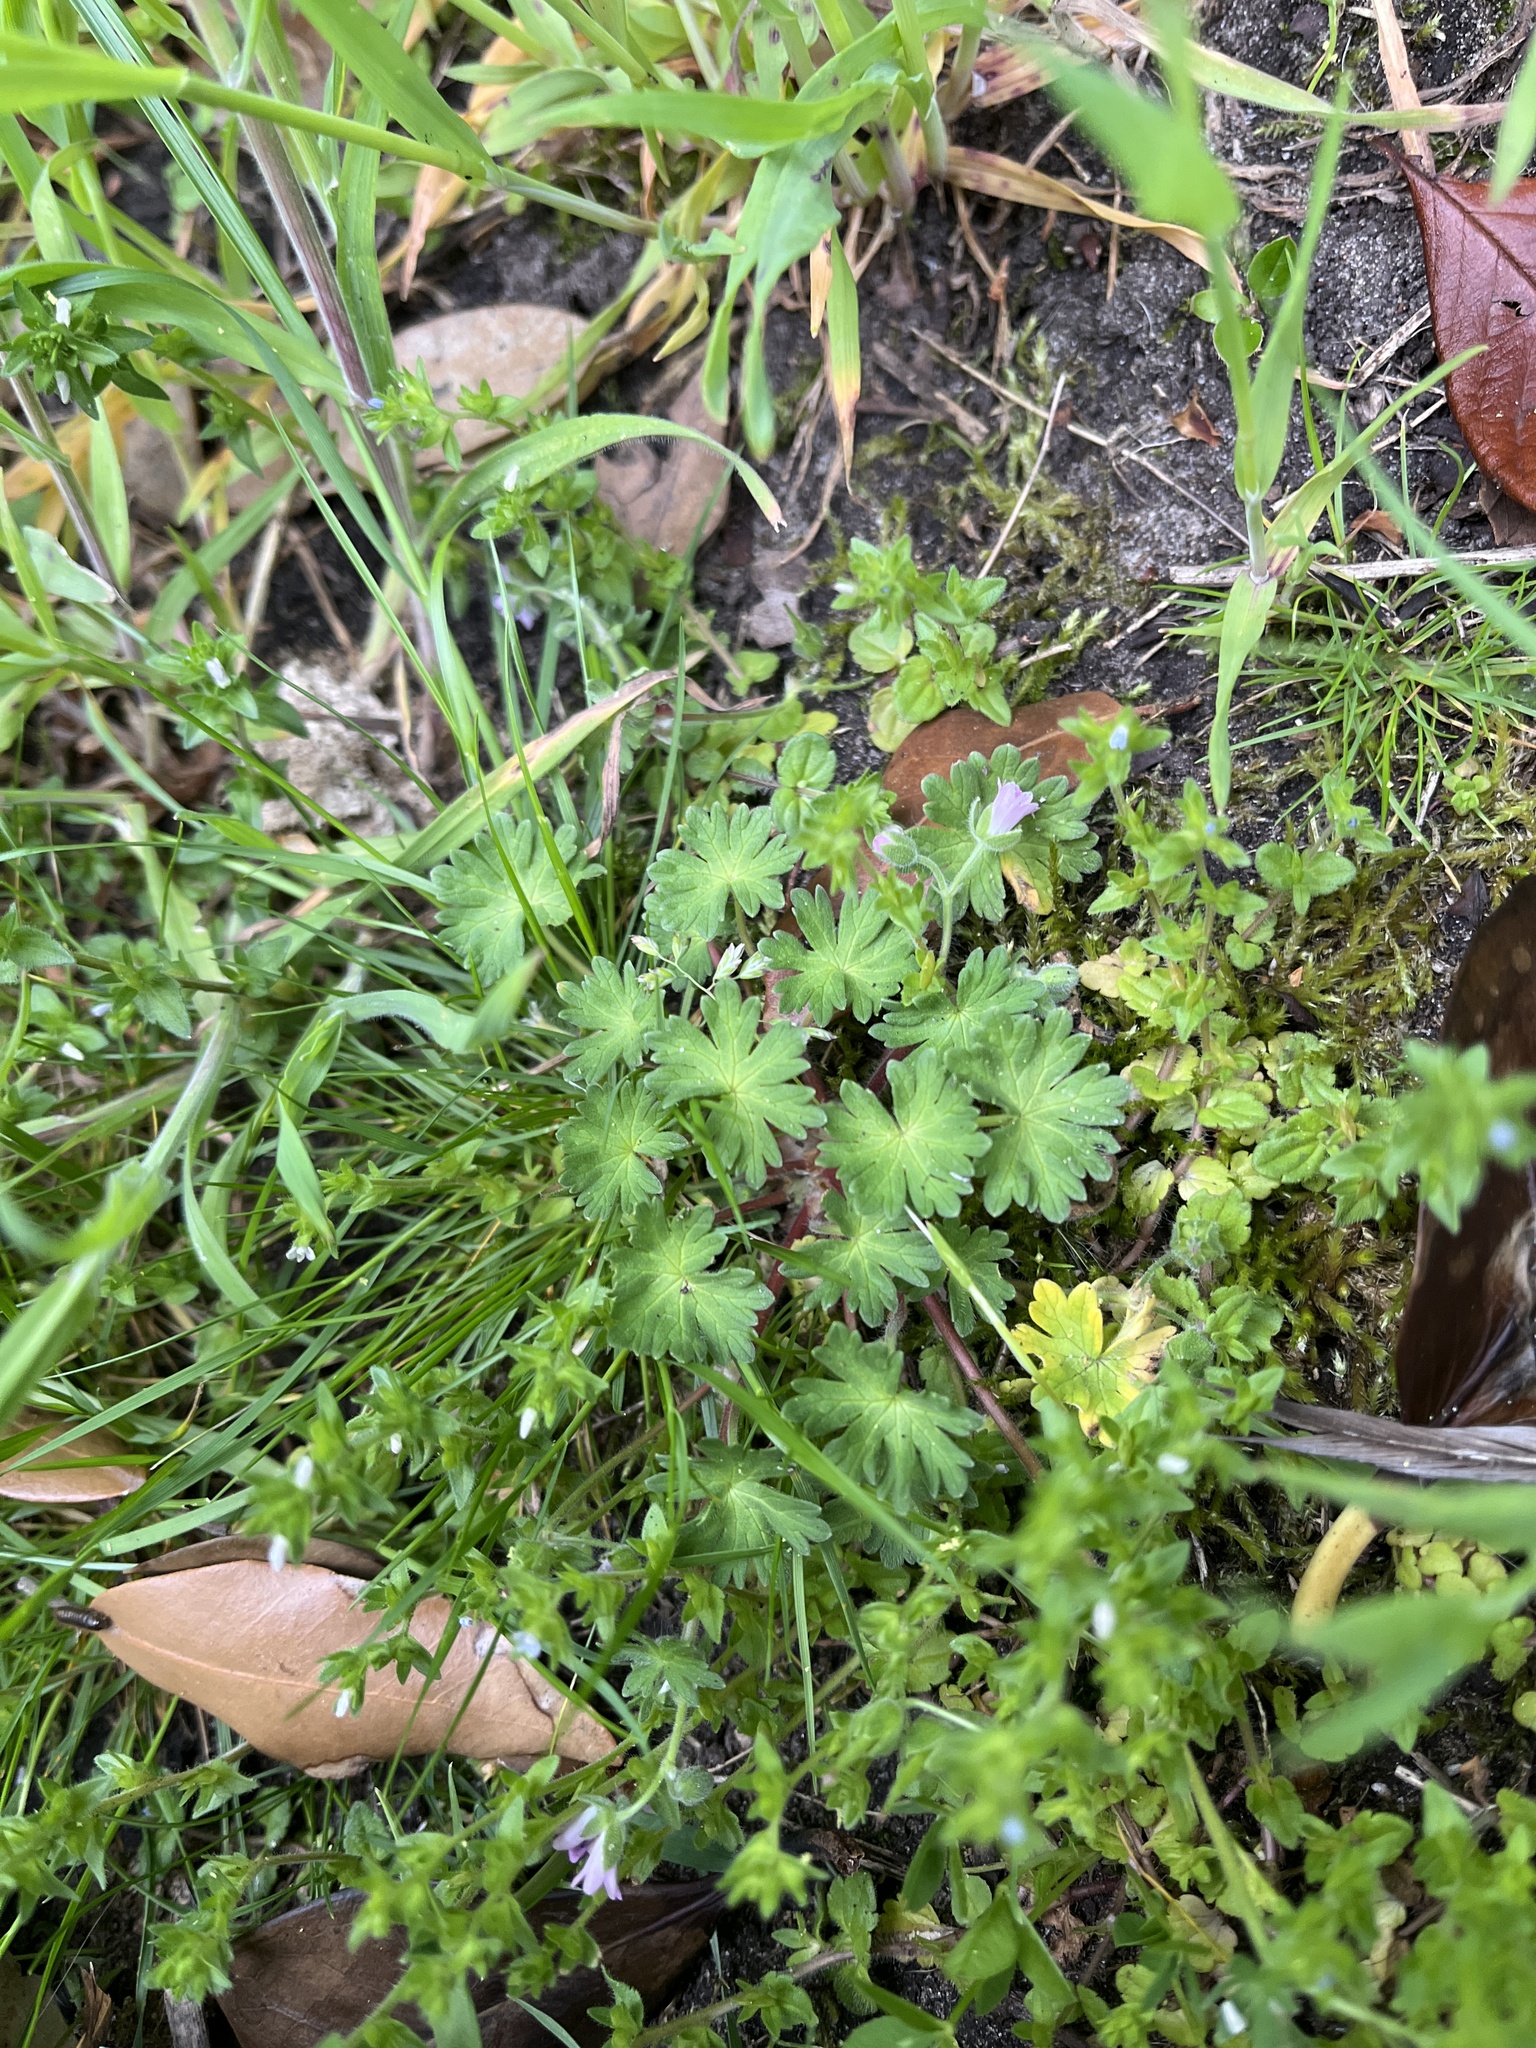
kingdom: Plantae
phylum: Tracheophyta
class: Magnoliopsida
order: Geraniales
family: Geraniaceae
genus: Geranium
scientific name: Geranium molle
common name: Dove's-foot crane's-bill
